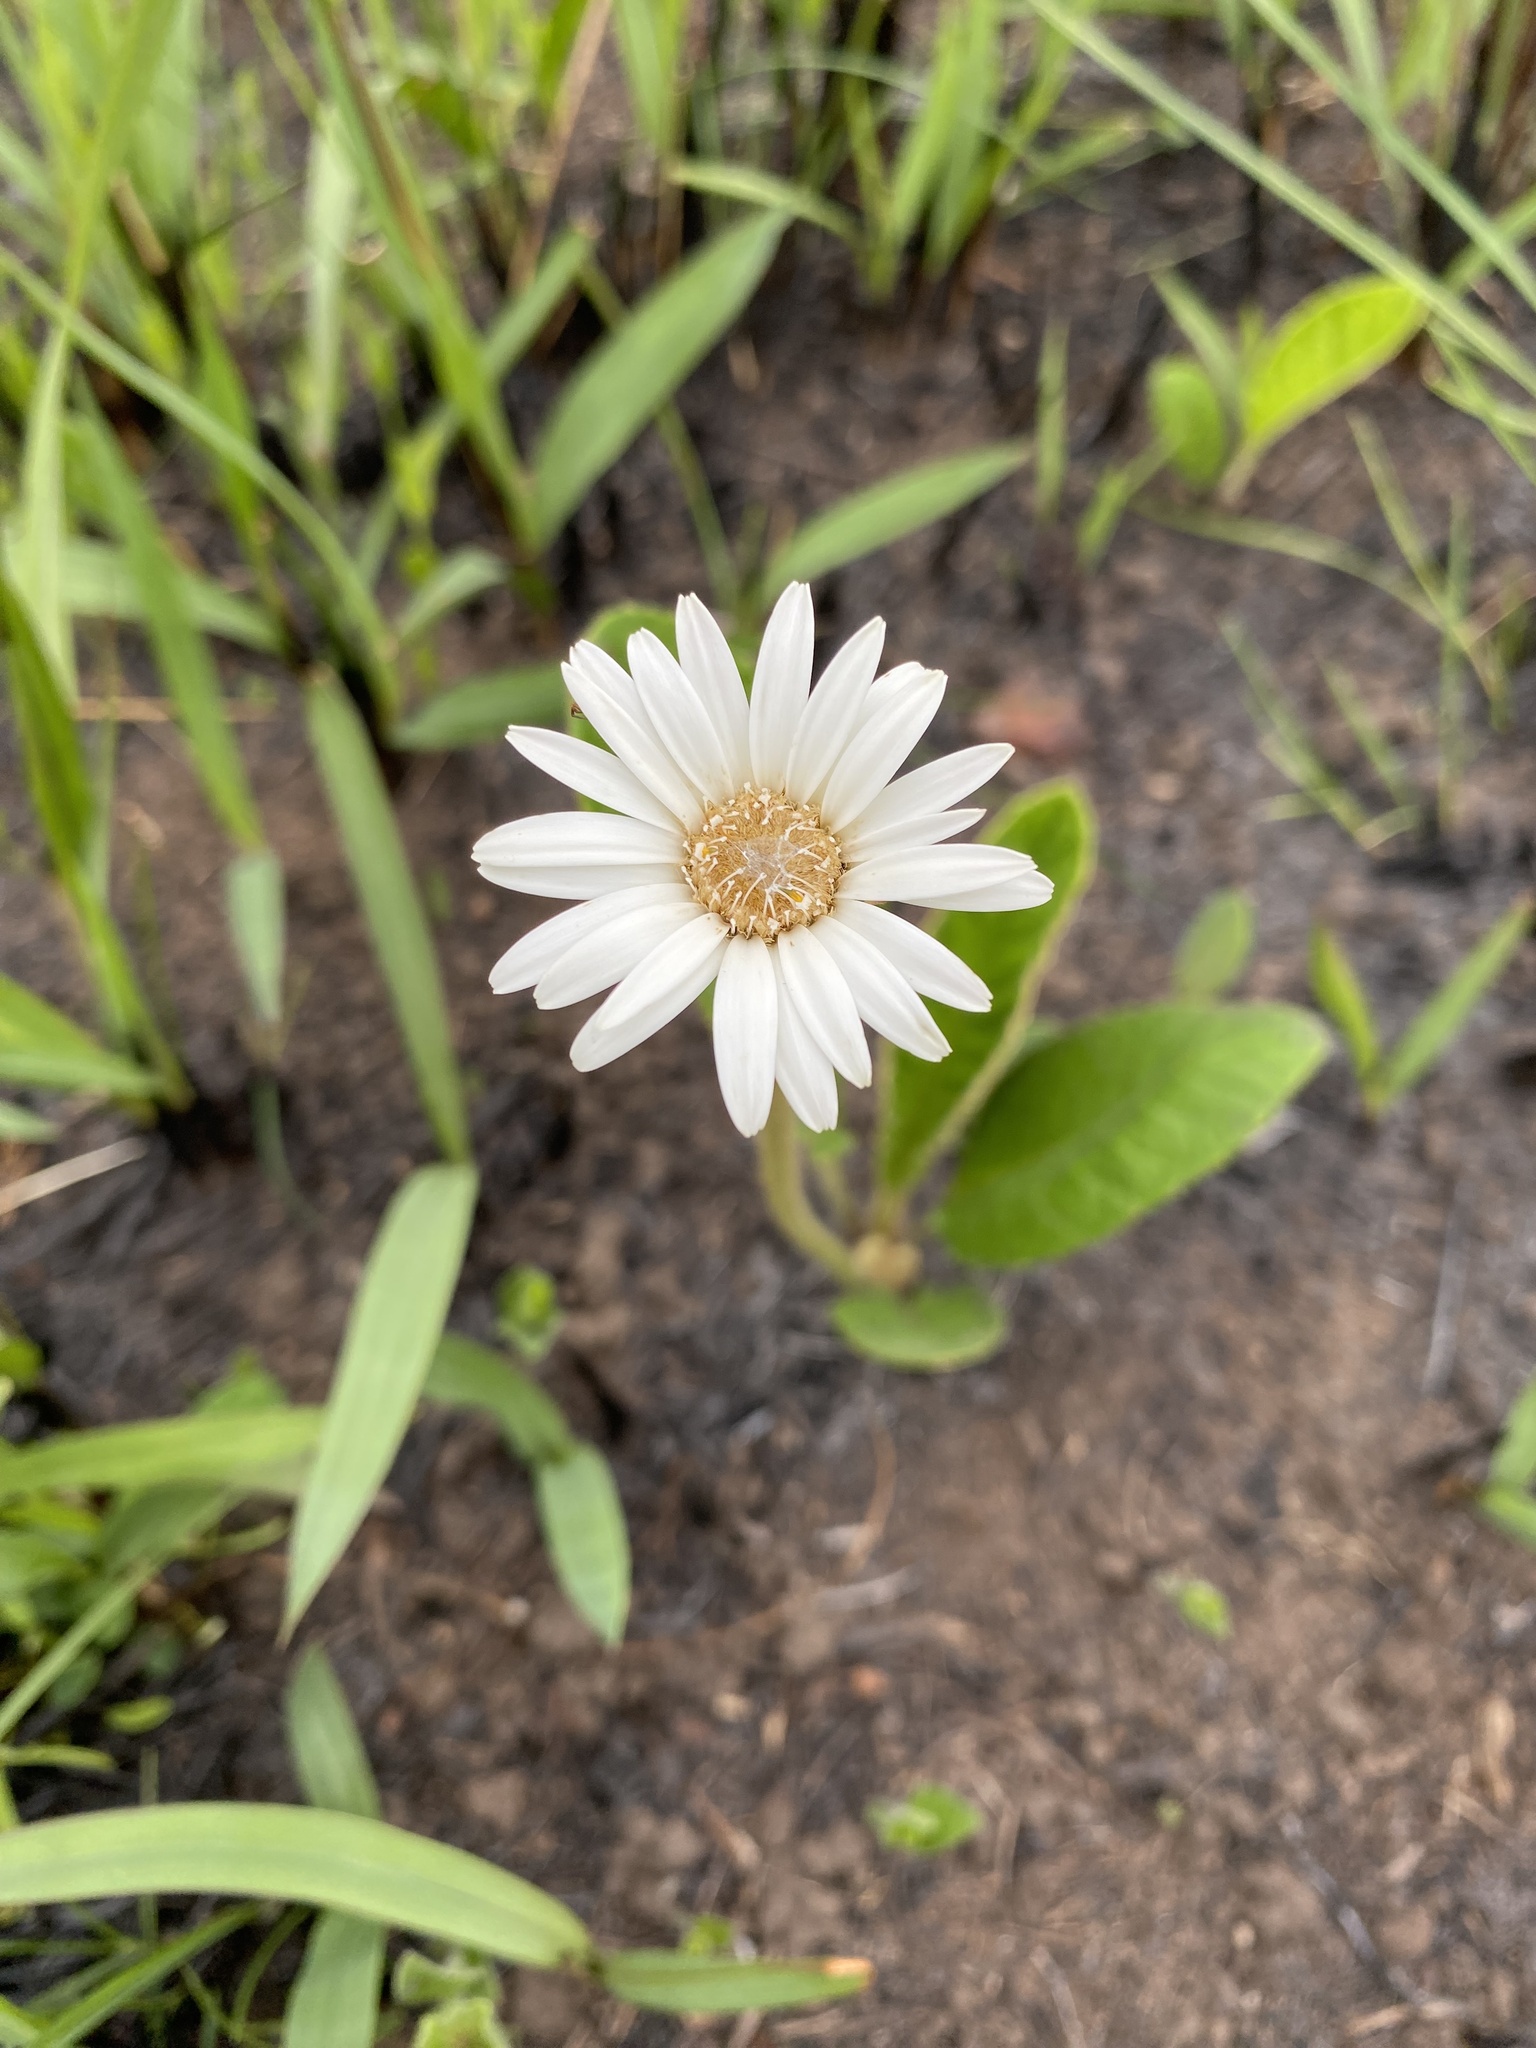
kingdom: Plantae
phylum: Tracheophyta
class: Magnoliopsida
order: Asterales
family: Asteraceae
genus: Gerbera
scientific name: Gerbera ambigua
